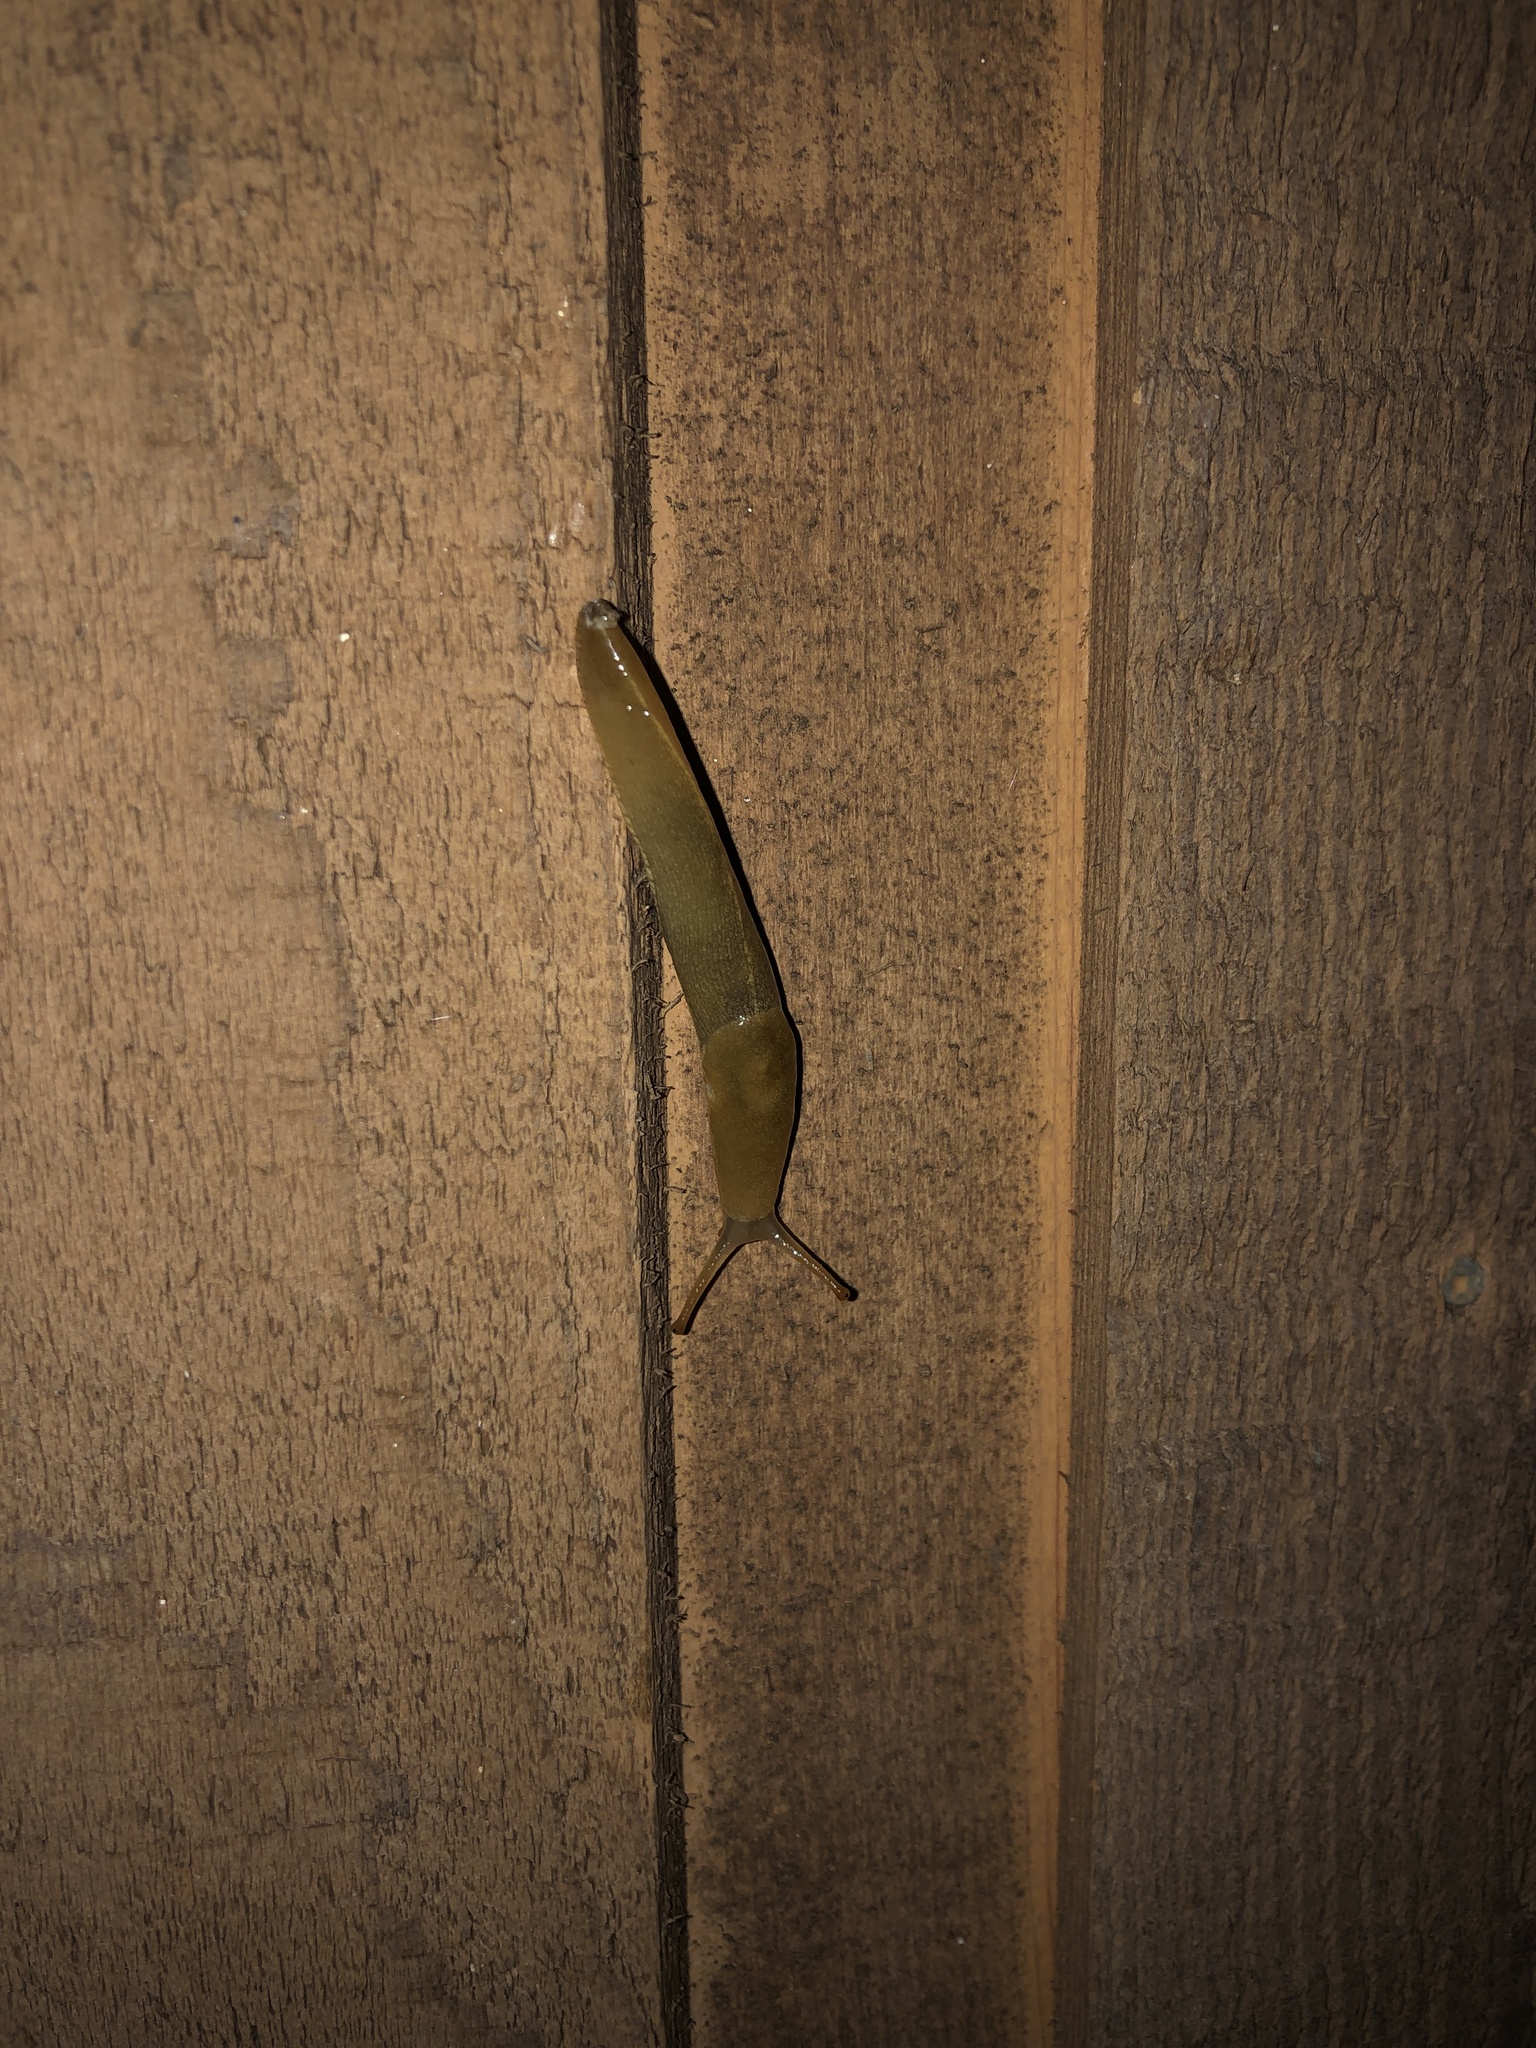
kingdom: Animalia
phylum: Mollusca
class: Gastropoda
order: Stylommatophora
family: Ariolimacidae
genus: Ariolimax
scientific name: Ariolimax columbianus
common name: Pacific banana slug
